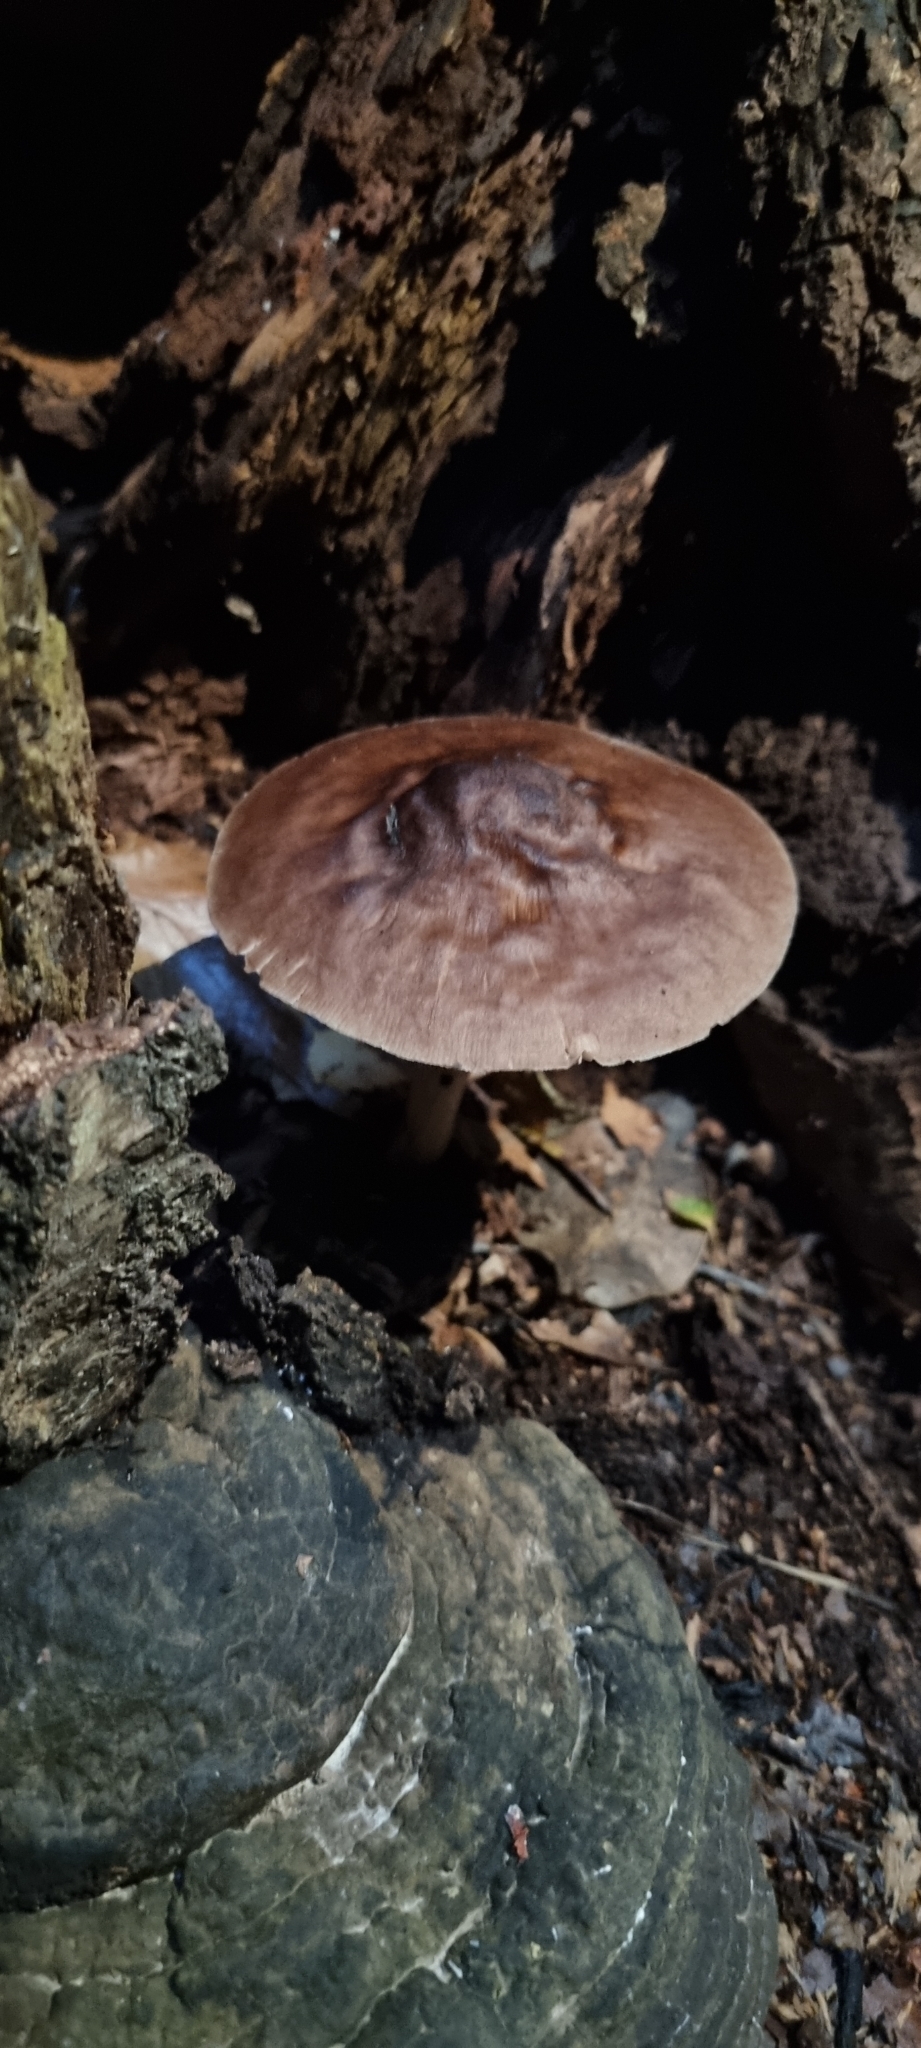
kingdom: Fungi
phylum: Basidiomycota
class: Agaricomycetes
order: Agaricales
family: Pluteaceae
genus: Pluteus
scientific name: Pluteus cervinus
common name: Deer shield
